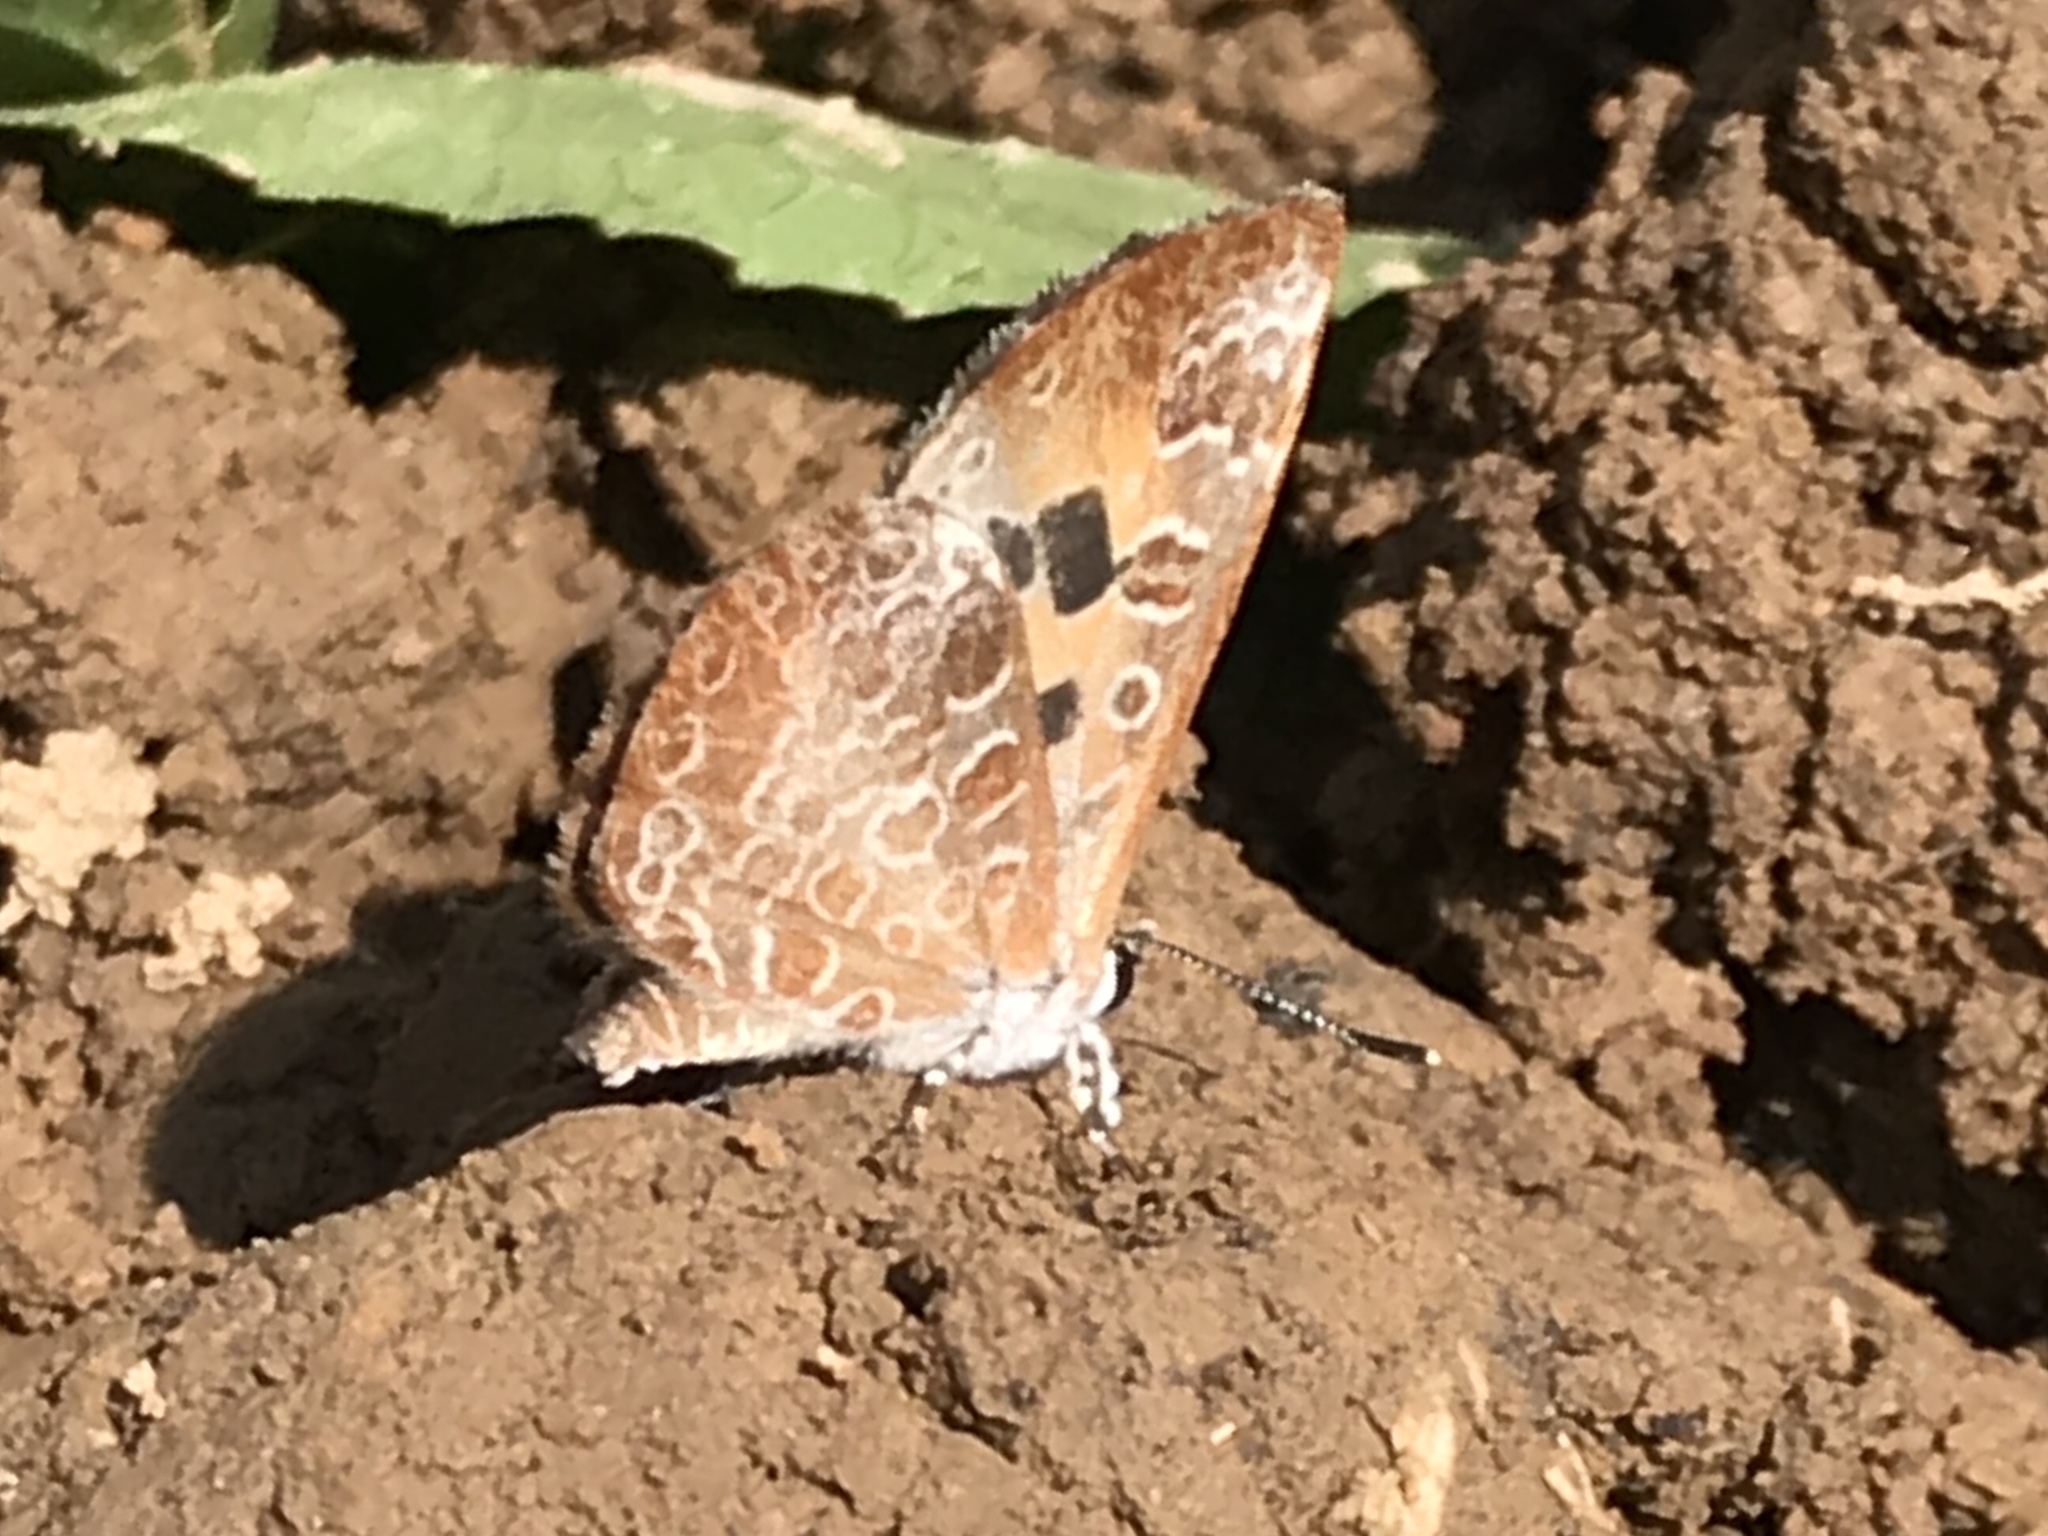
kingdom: Animalia
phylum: Arthropoda
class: Insecta
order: Lepidoptera
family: Lycaenidae
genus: Feniseca
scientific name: Feniseca tarquinius
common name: Harvester
